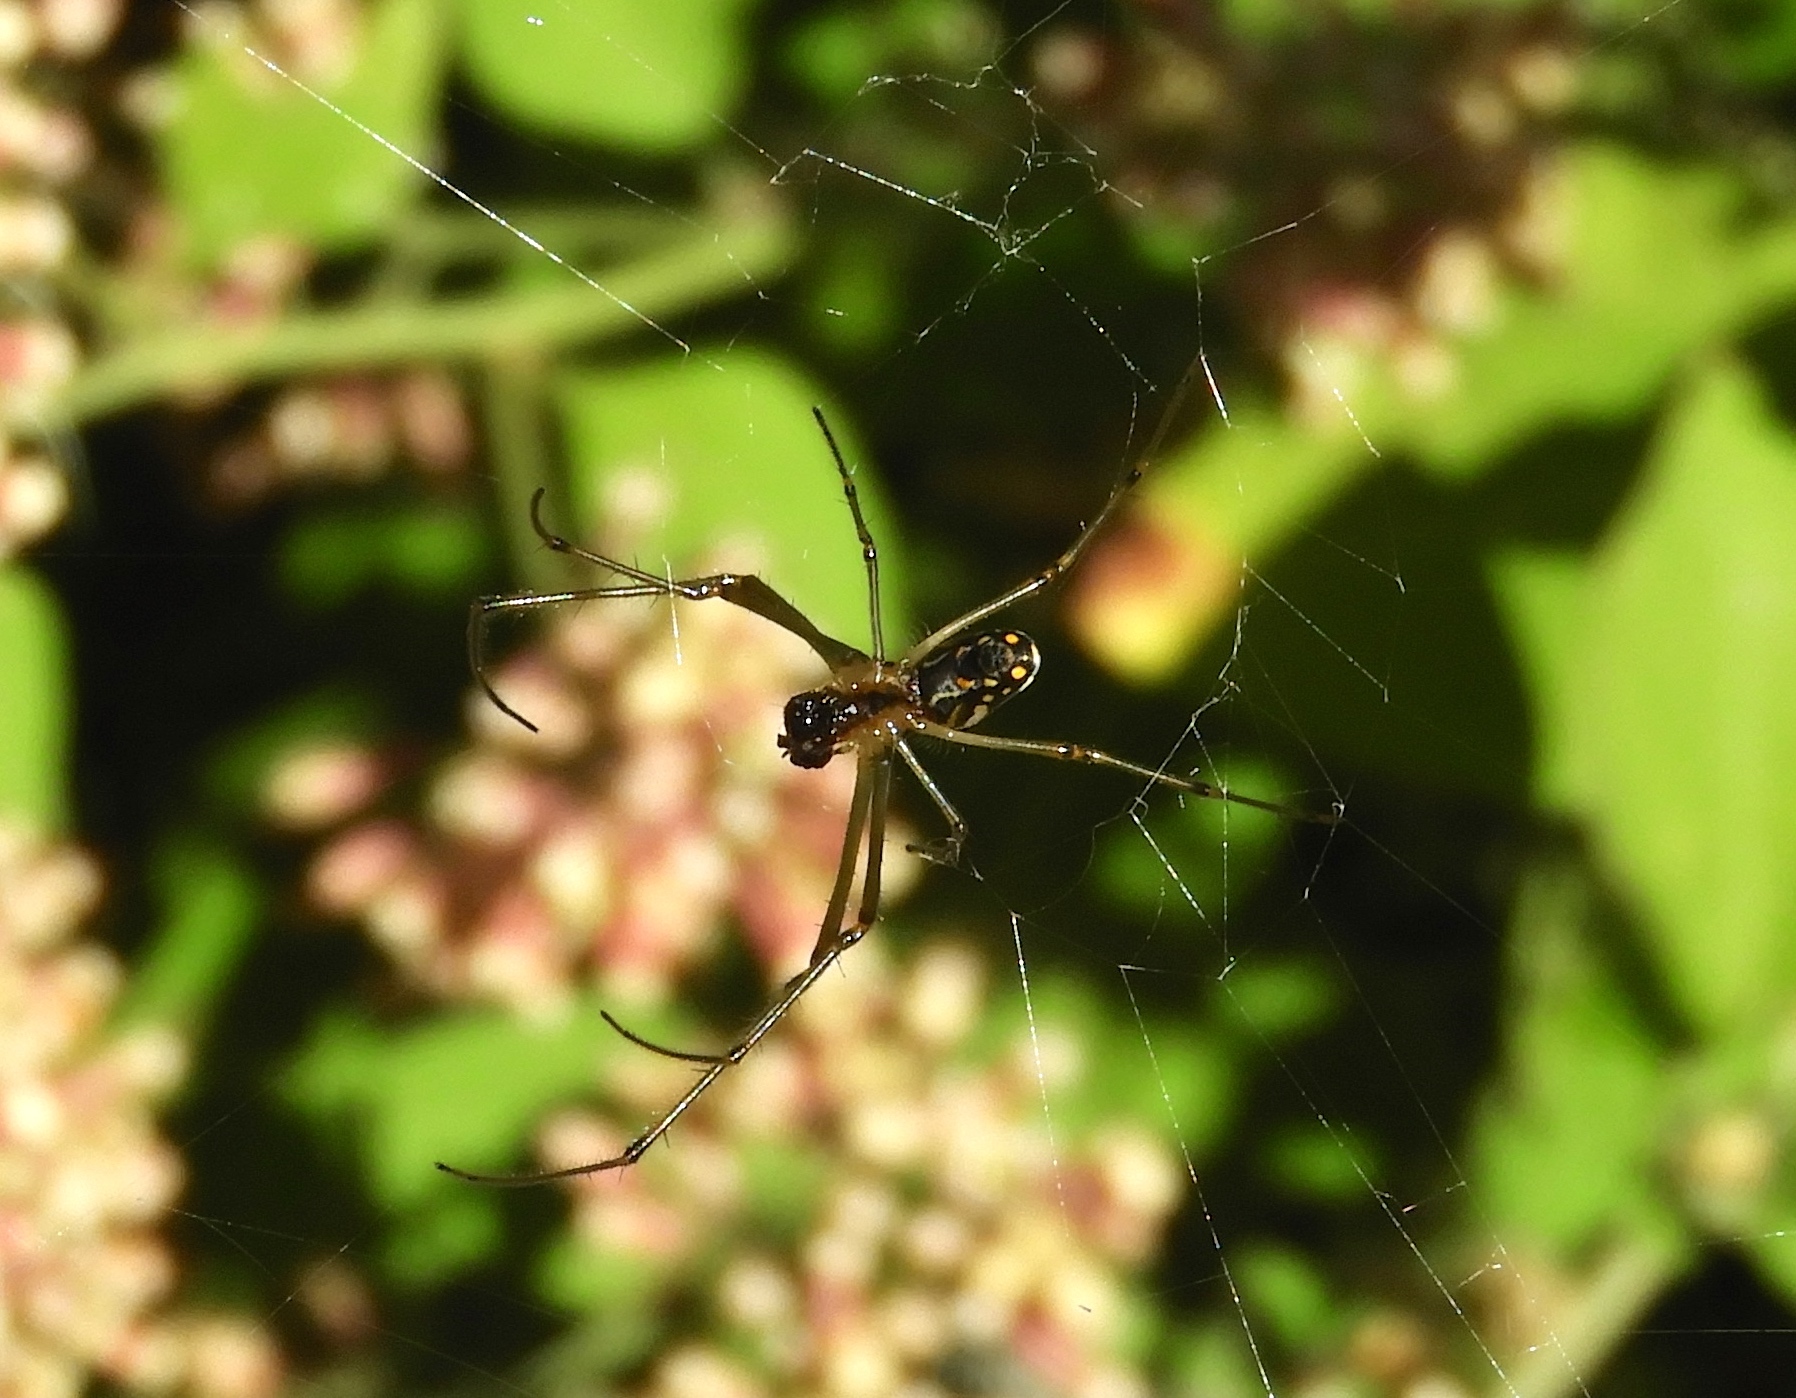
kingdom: Animalia
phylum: Arthropoda
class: Arachnida
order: Araneae
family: Tetragnathidae
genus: Leucauge
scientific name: Leucauge
